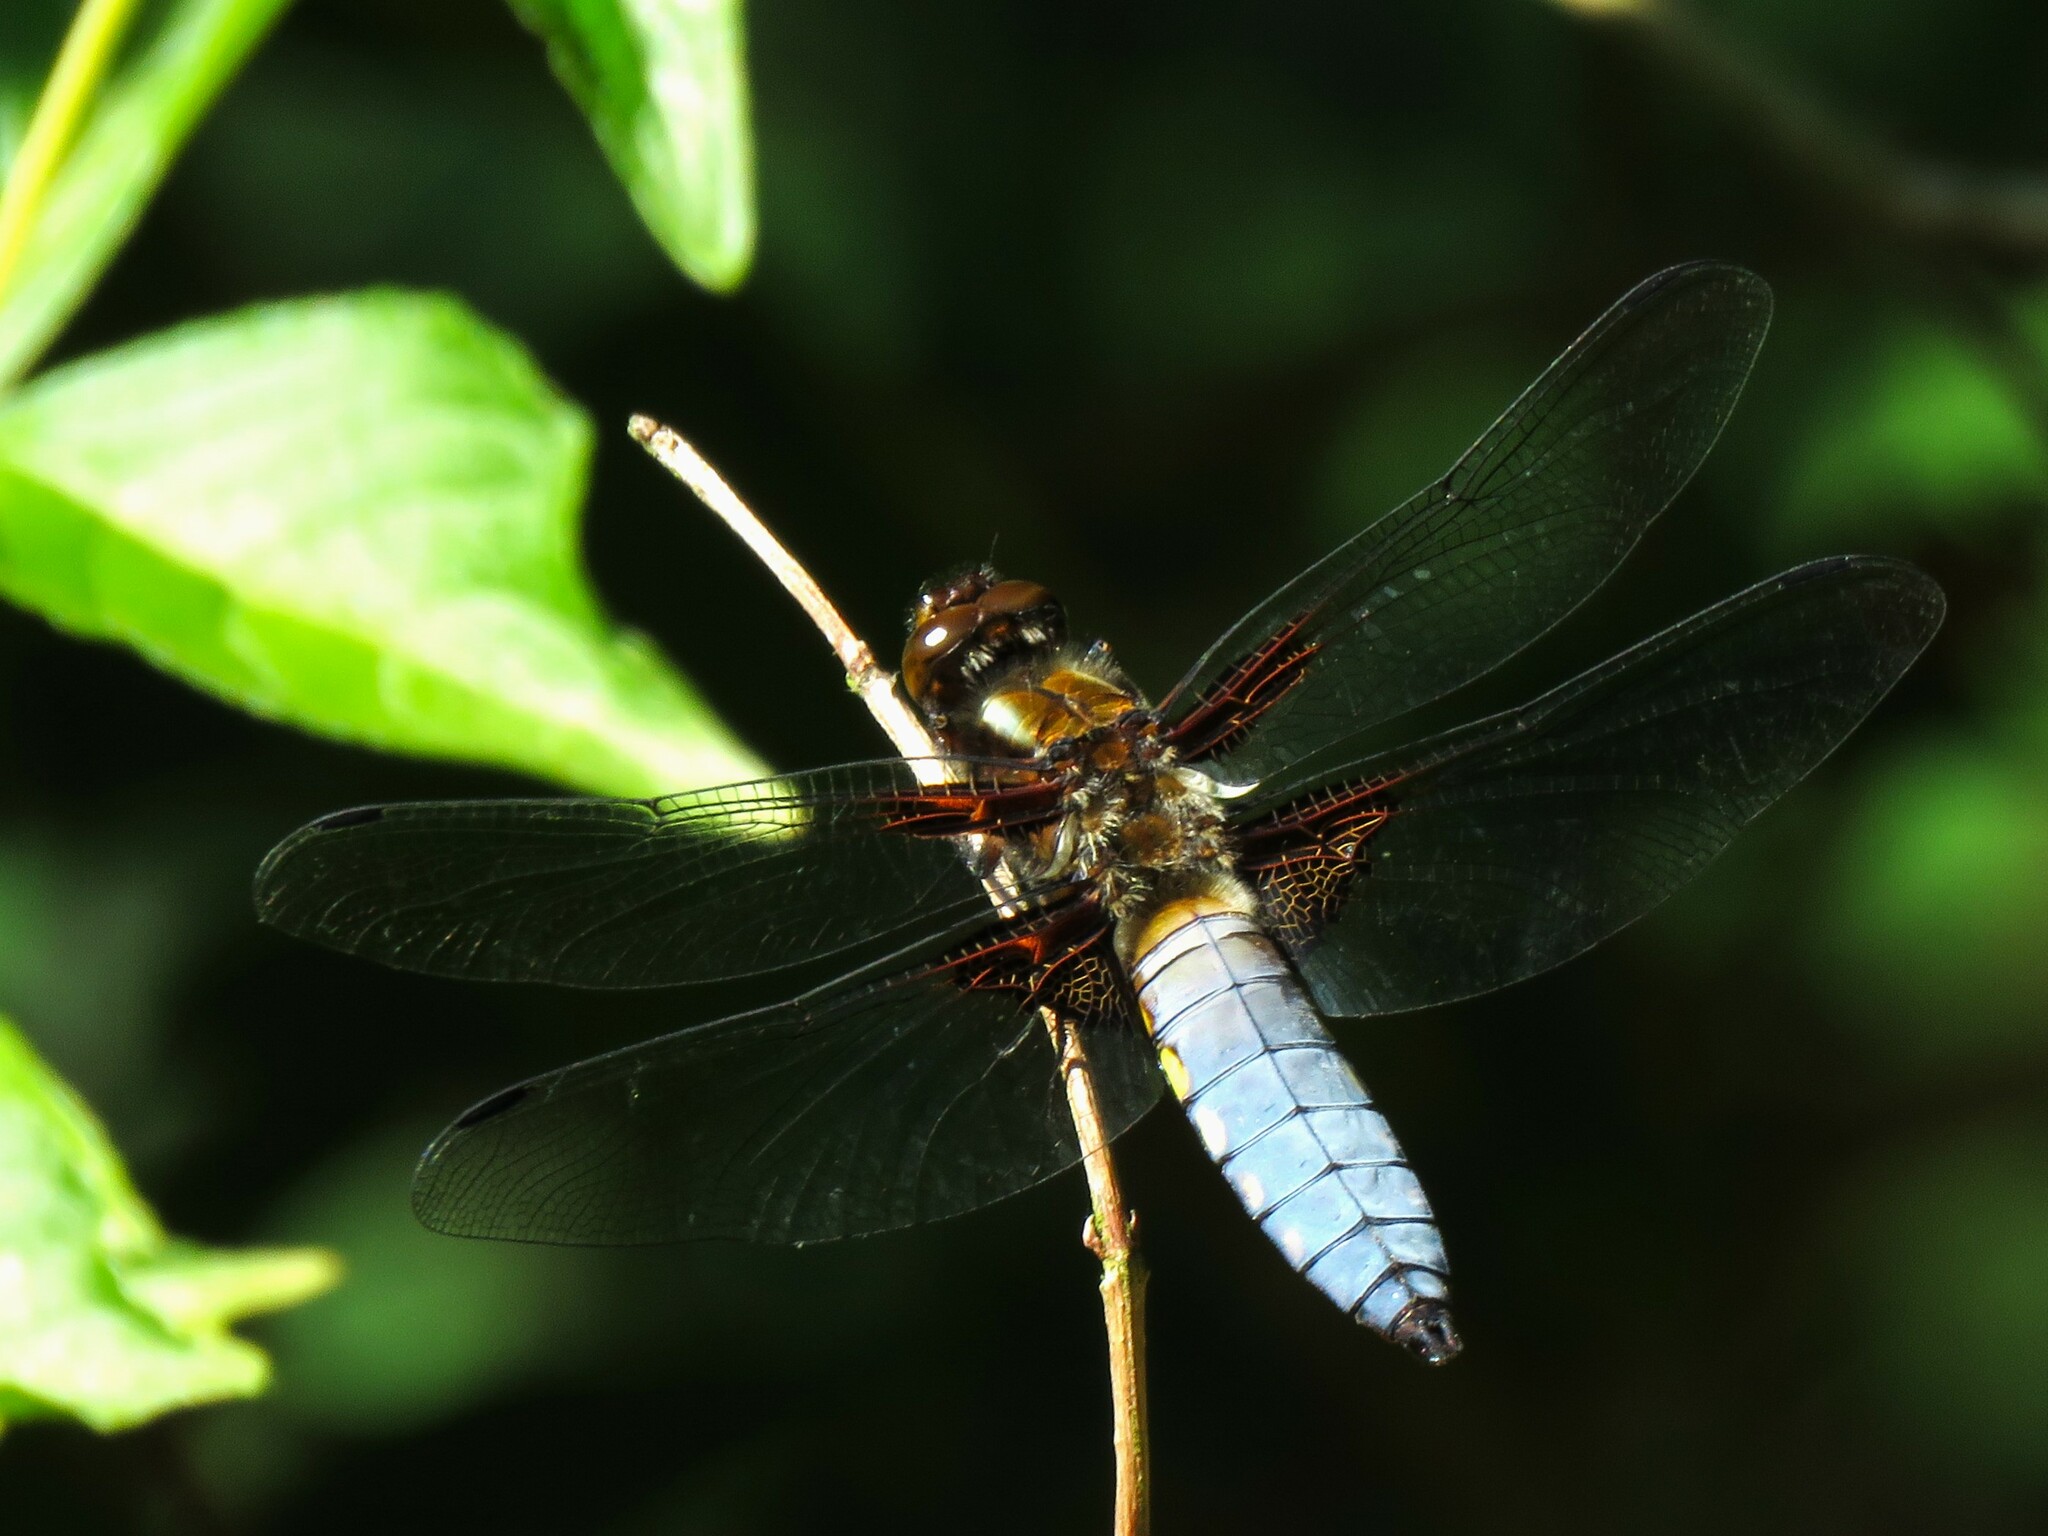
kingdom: Animalia
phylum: Arthropoda
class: Insecta
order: Odonata
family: Libellulidae
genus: Libellula
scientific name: Libellula depressa
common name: Broad-bodied chaser
